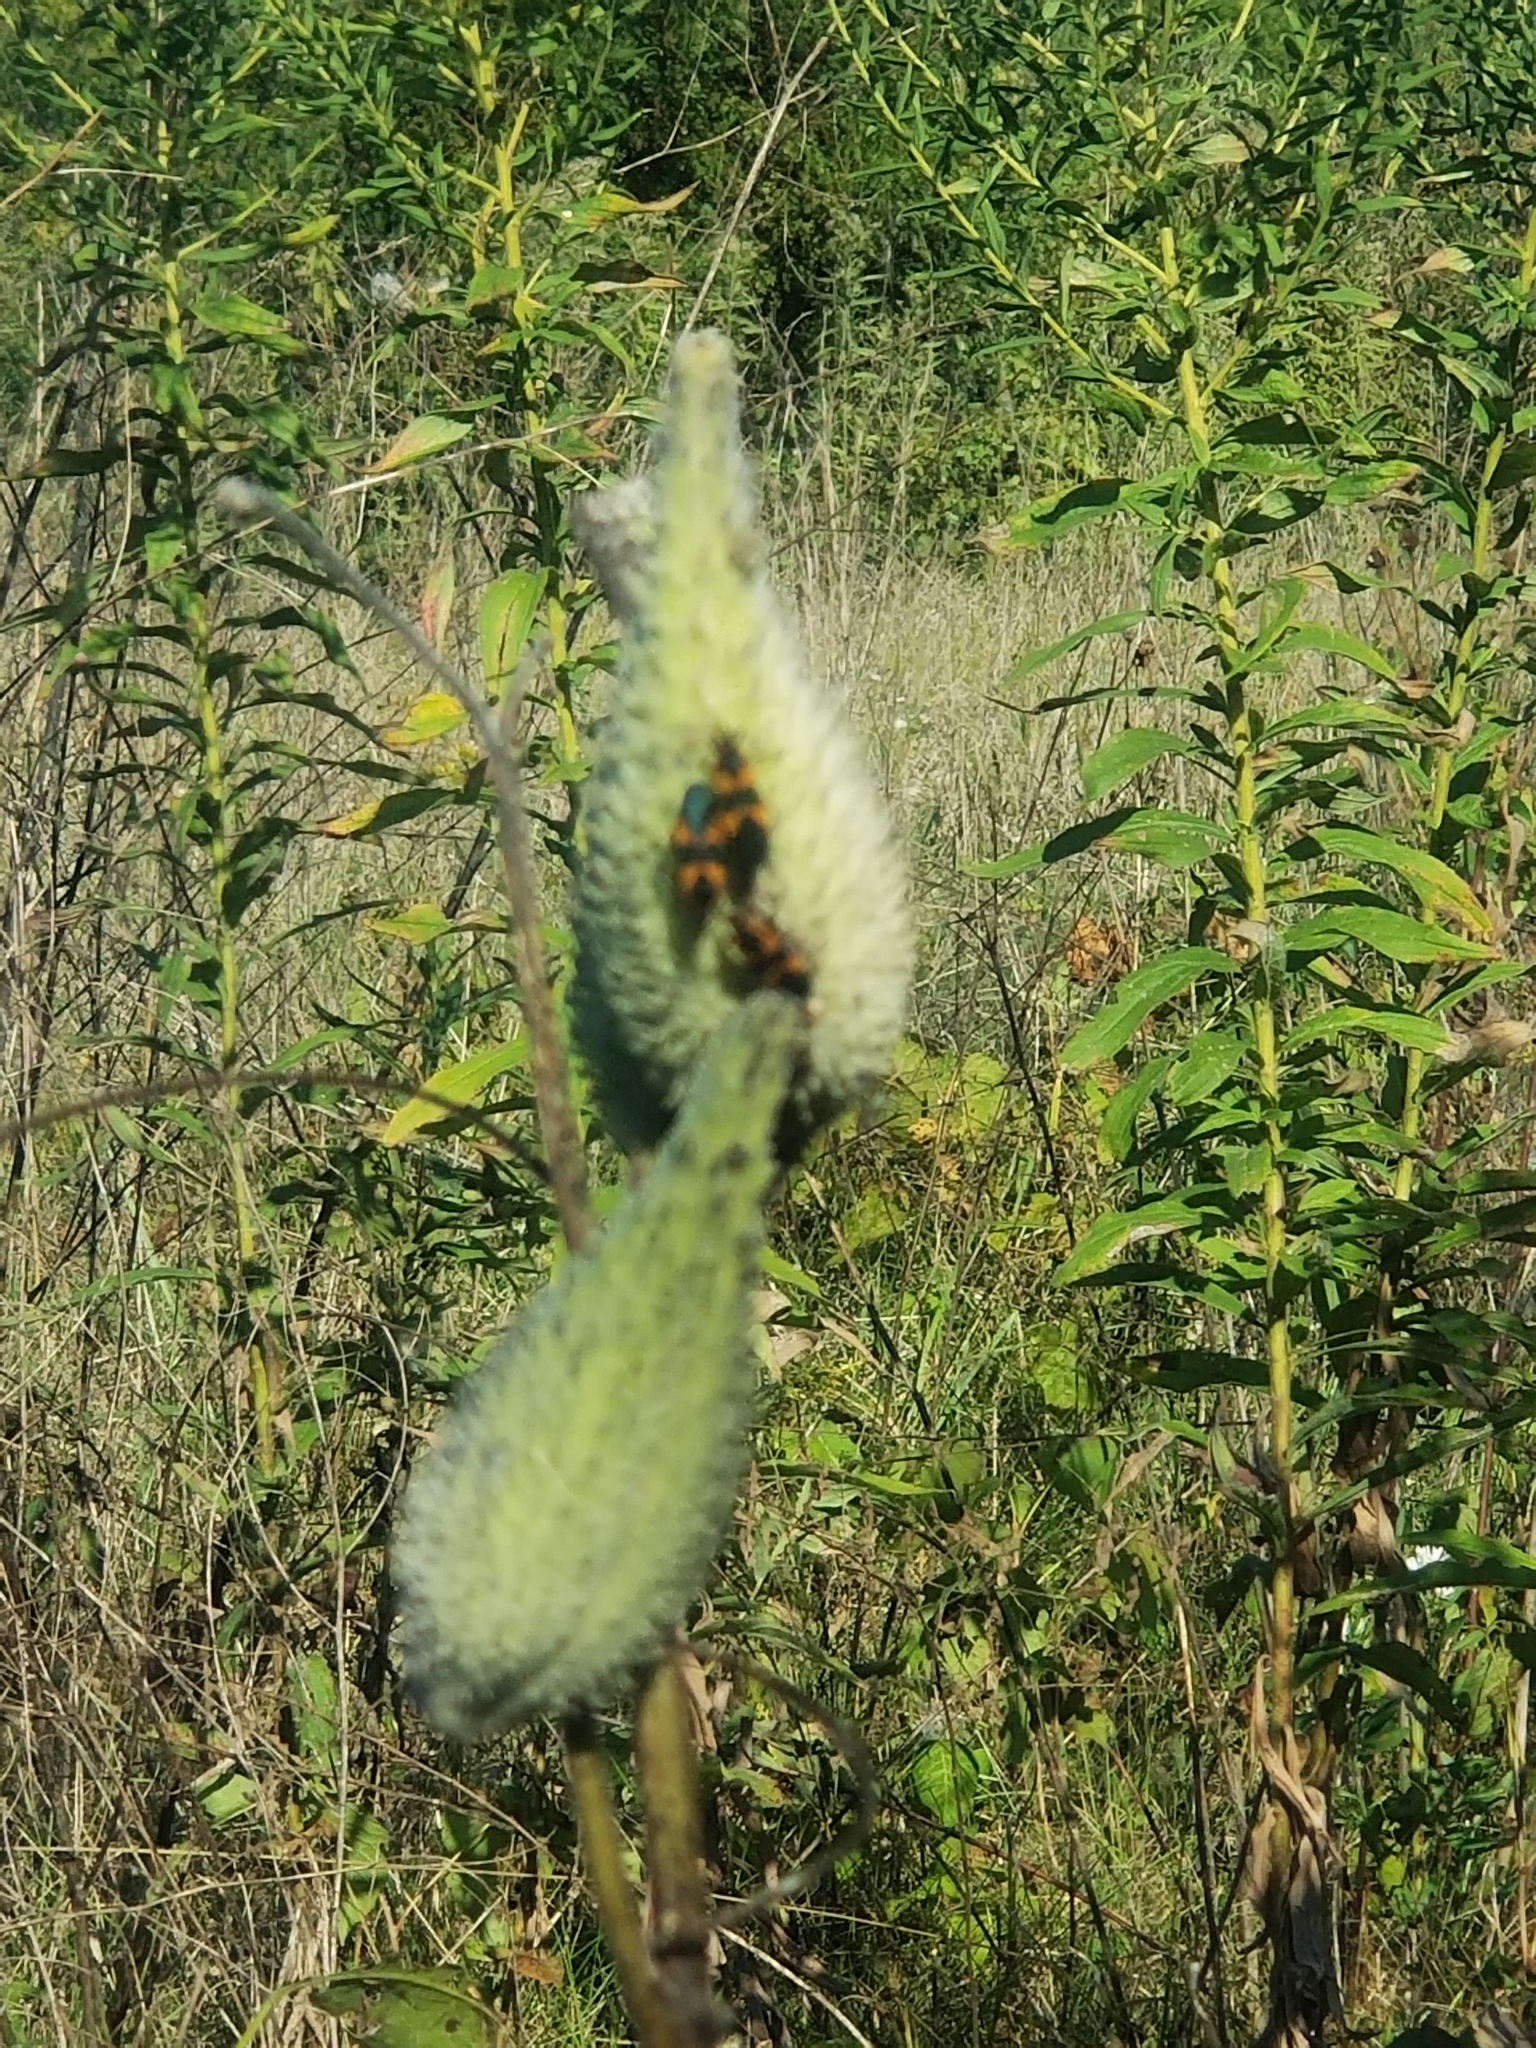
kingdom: Animalia
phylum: Arthropoda
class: Insecta
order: Hemiptera
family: Lygaeidae
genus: Oncopeltus
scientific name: Oncopeltus fasciatus
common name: Large milkweed bug
